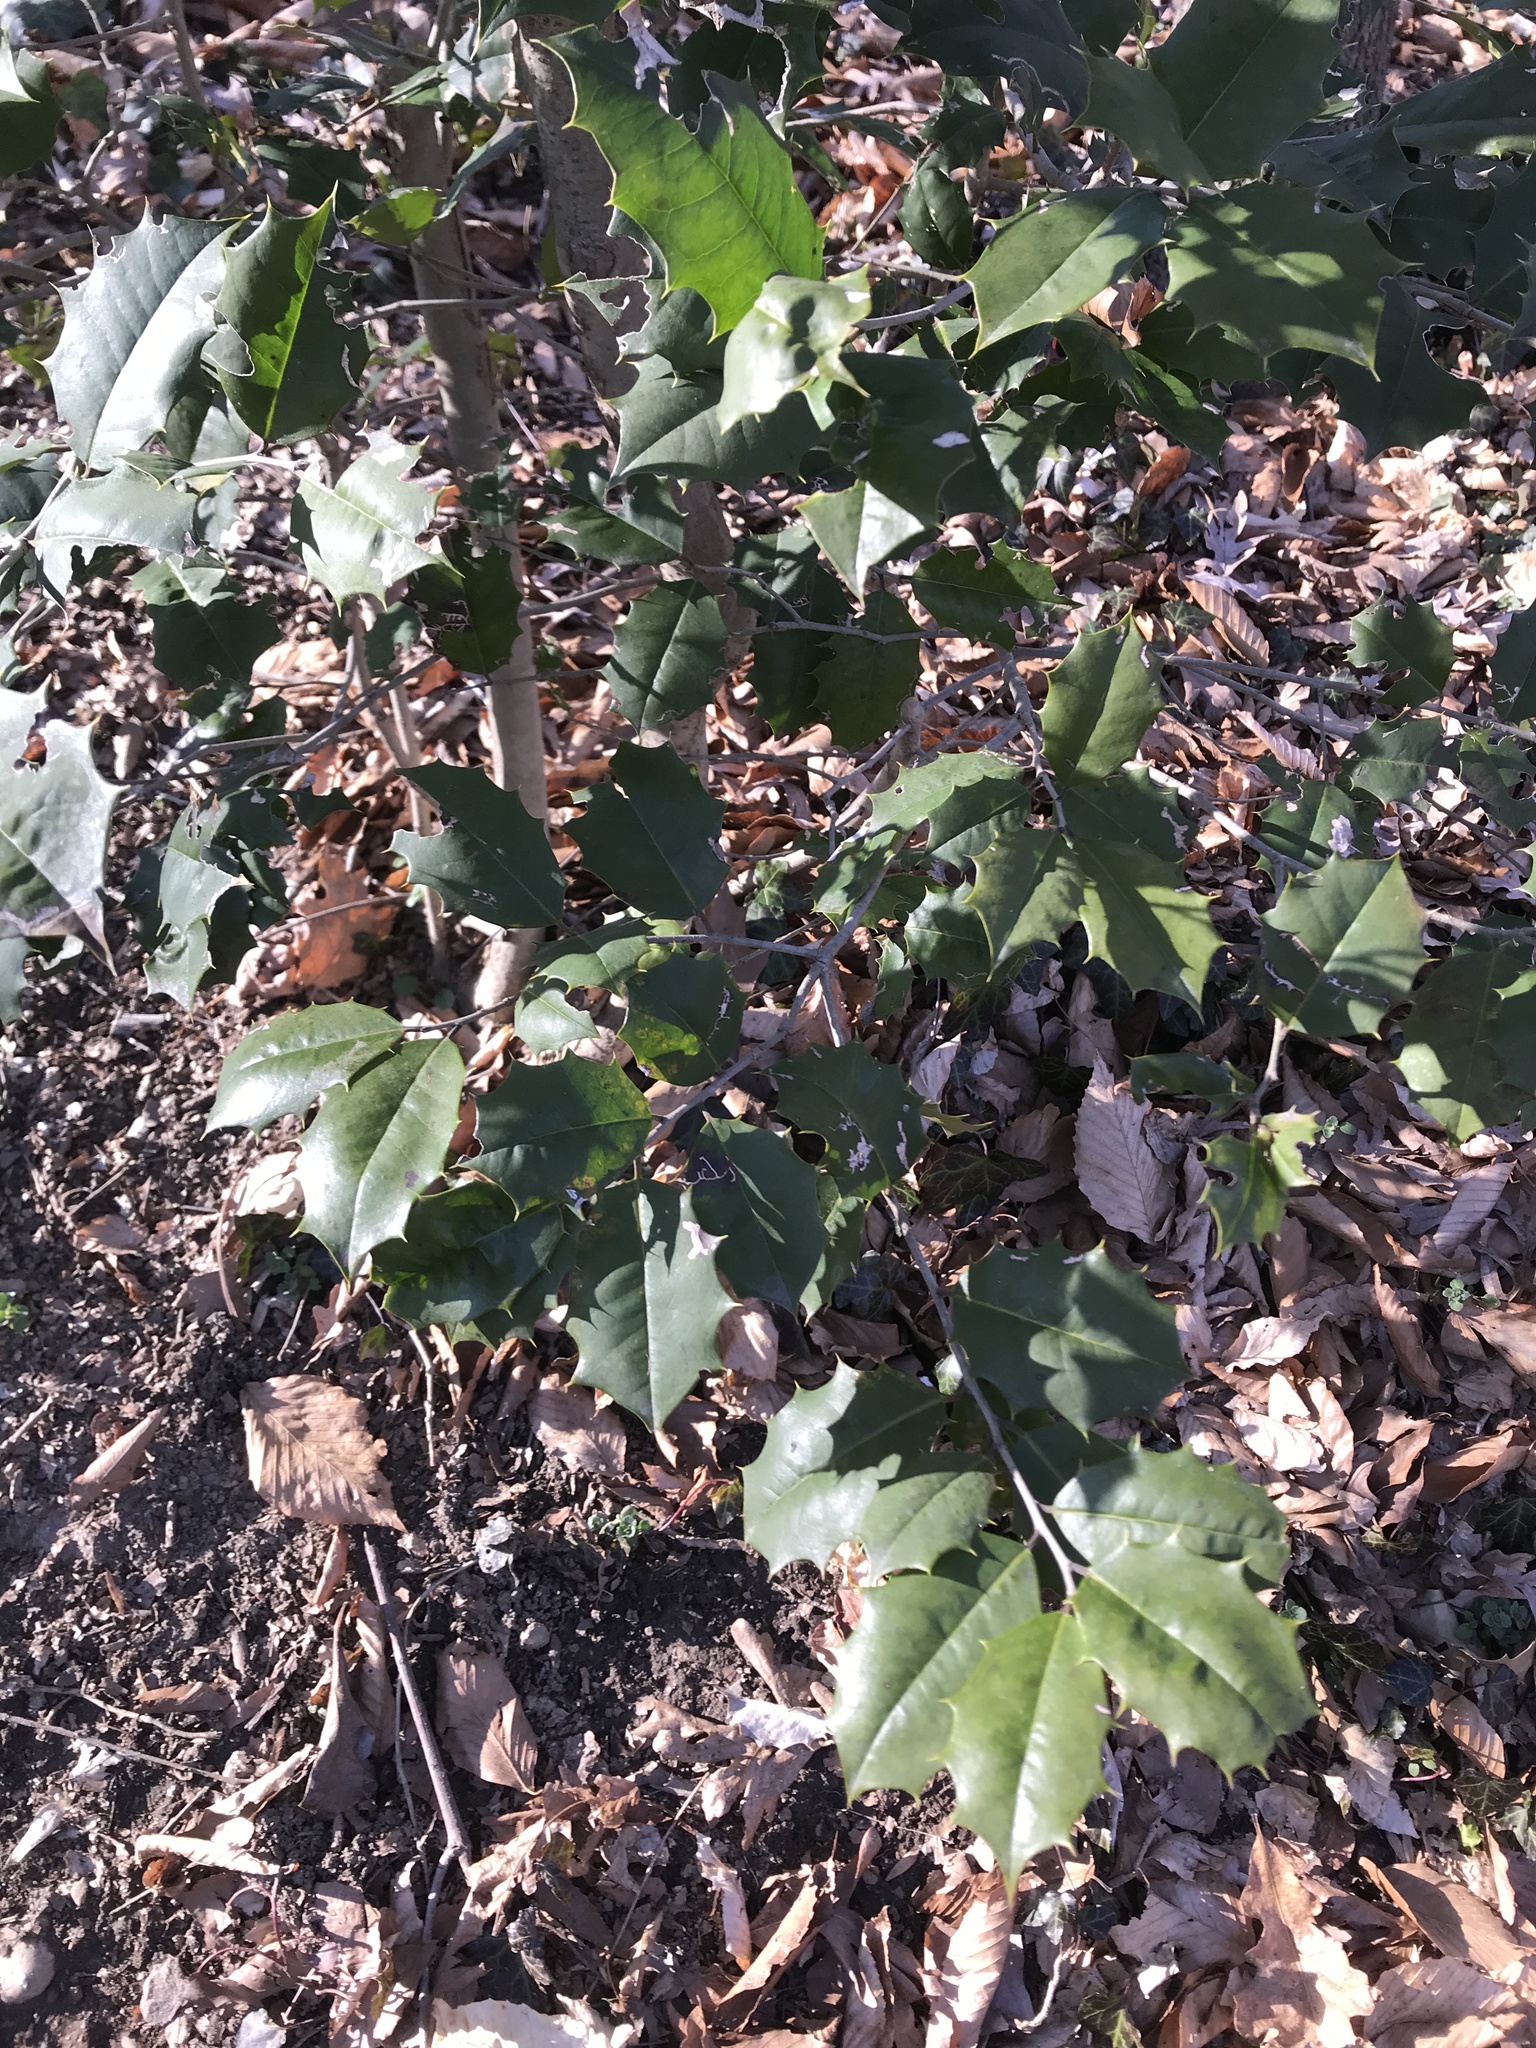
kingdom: Plantae
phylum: Tracheophyta
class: Magnoliopsida
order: Aquifoliales
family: Aquifoliaceae
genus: Ilex
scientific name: Ilex opaca
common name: American holly
